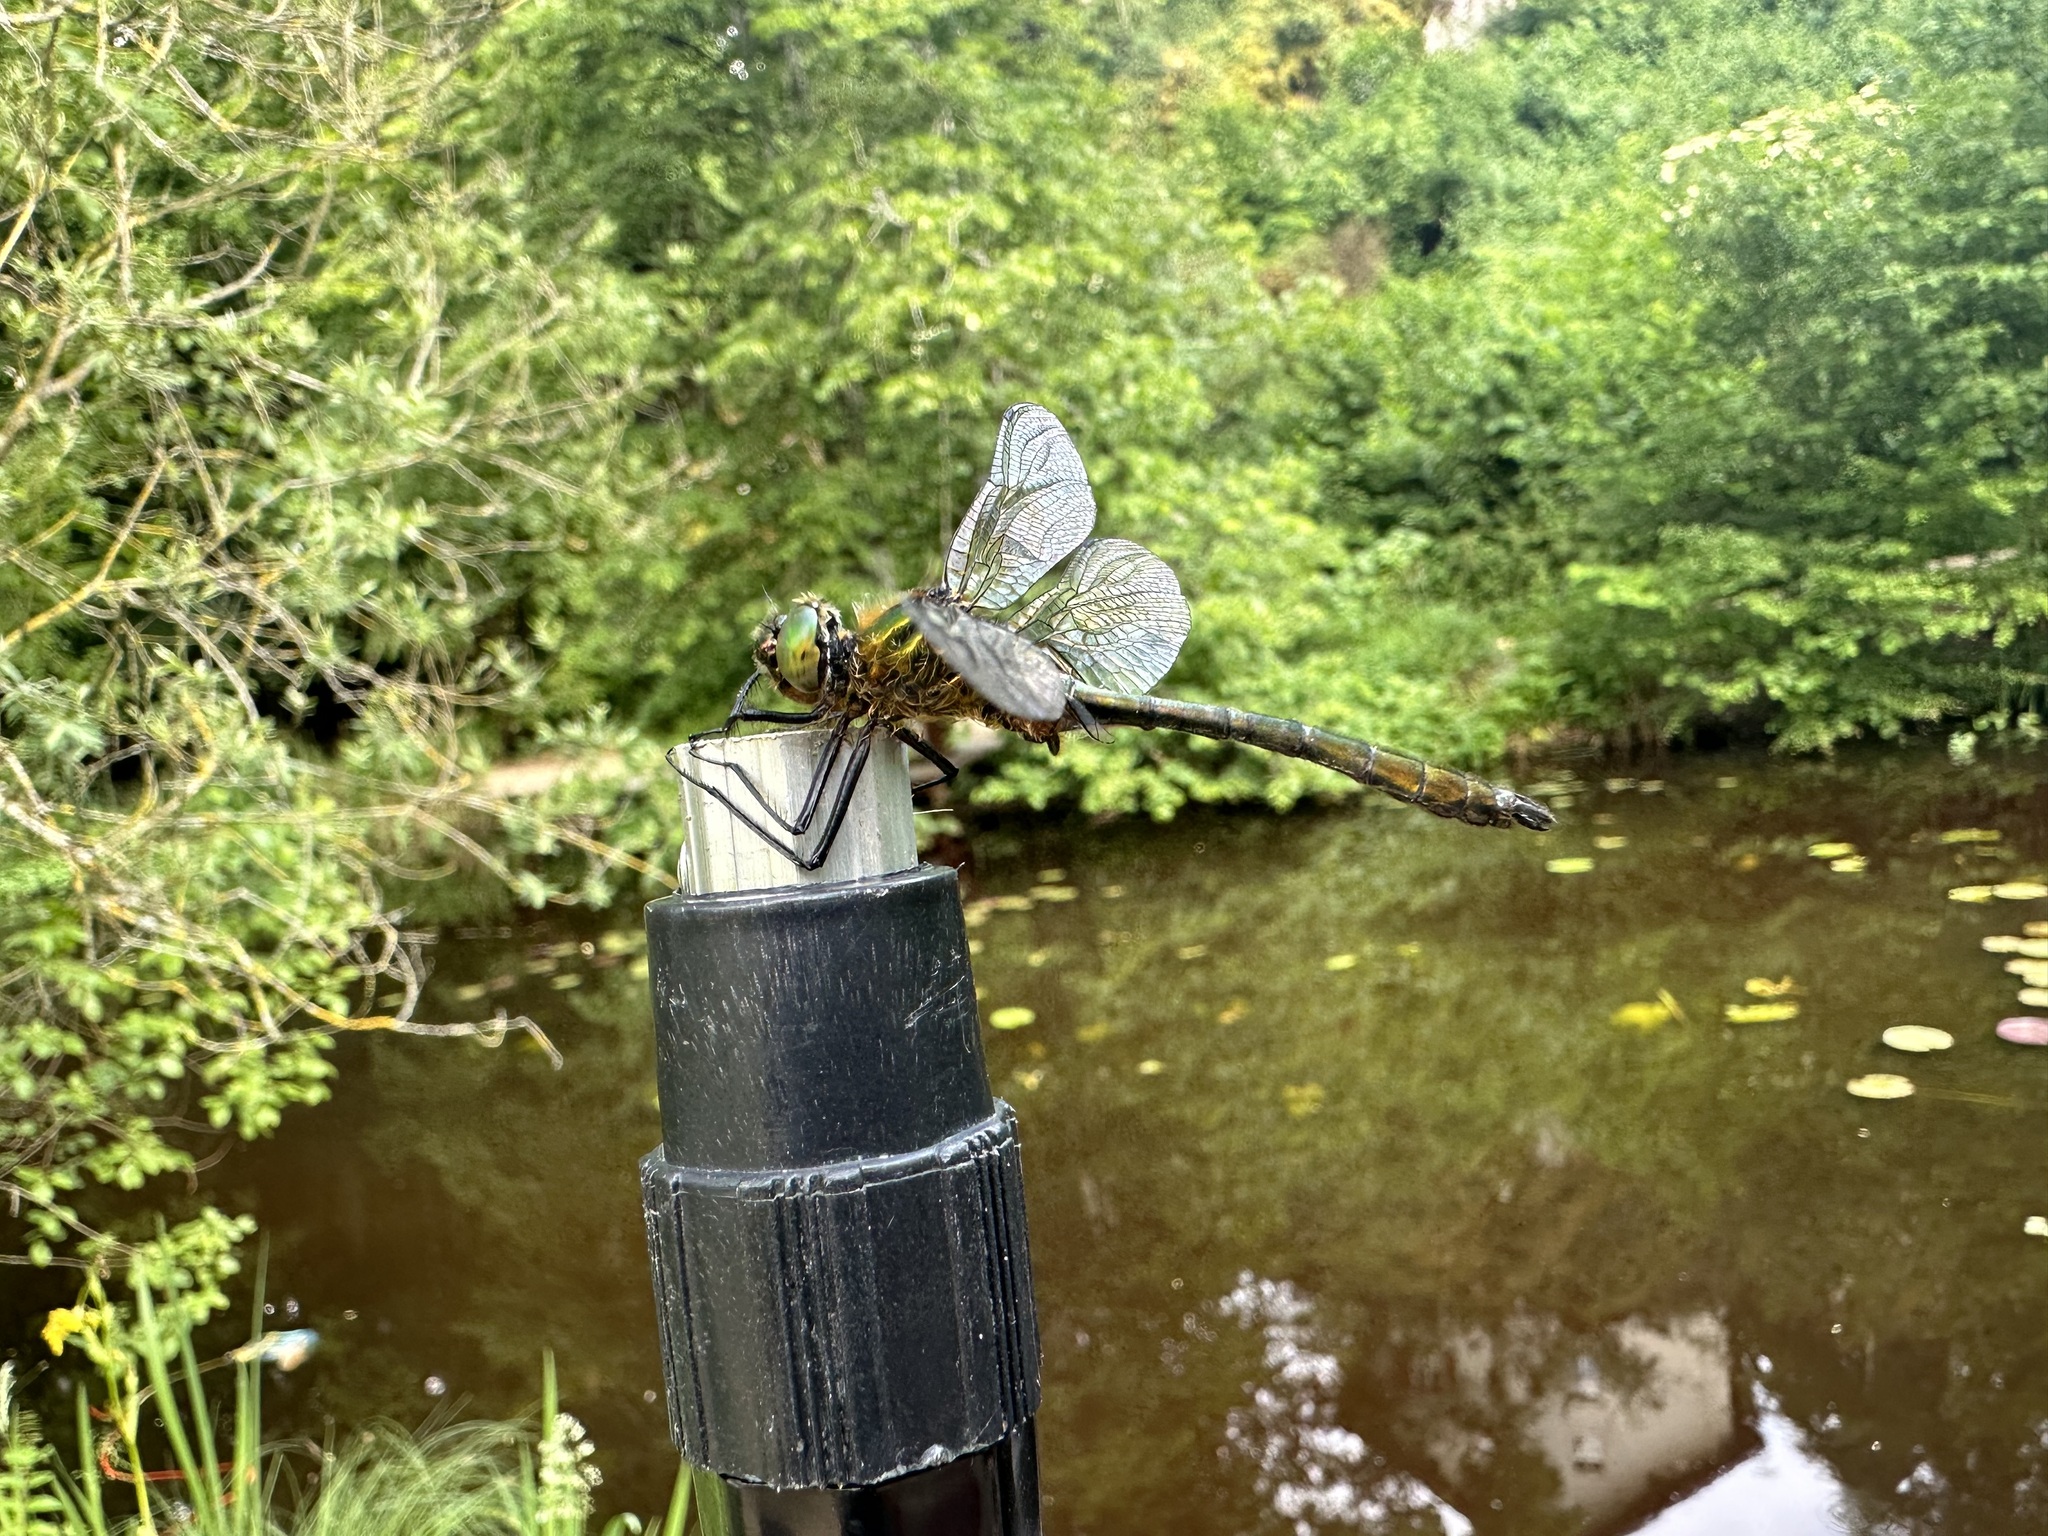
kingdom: Animalia
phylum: Arthropoda
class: Insecta
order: Odonata
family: Corduliidae
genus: Cordulia
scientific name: Cordulia aenea
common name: Downy emerald
